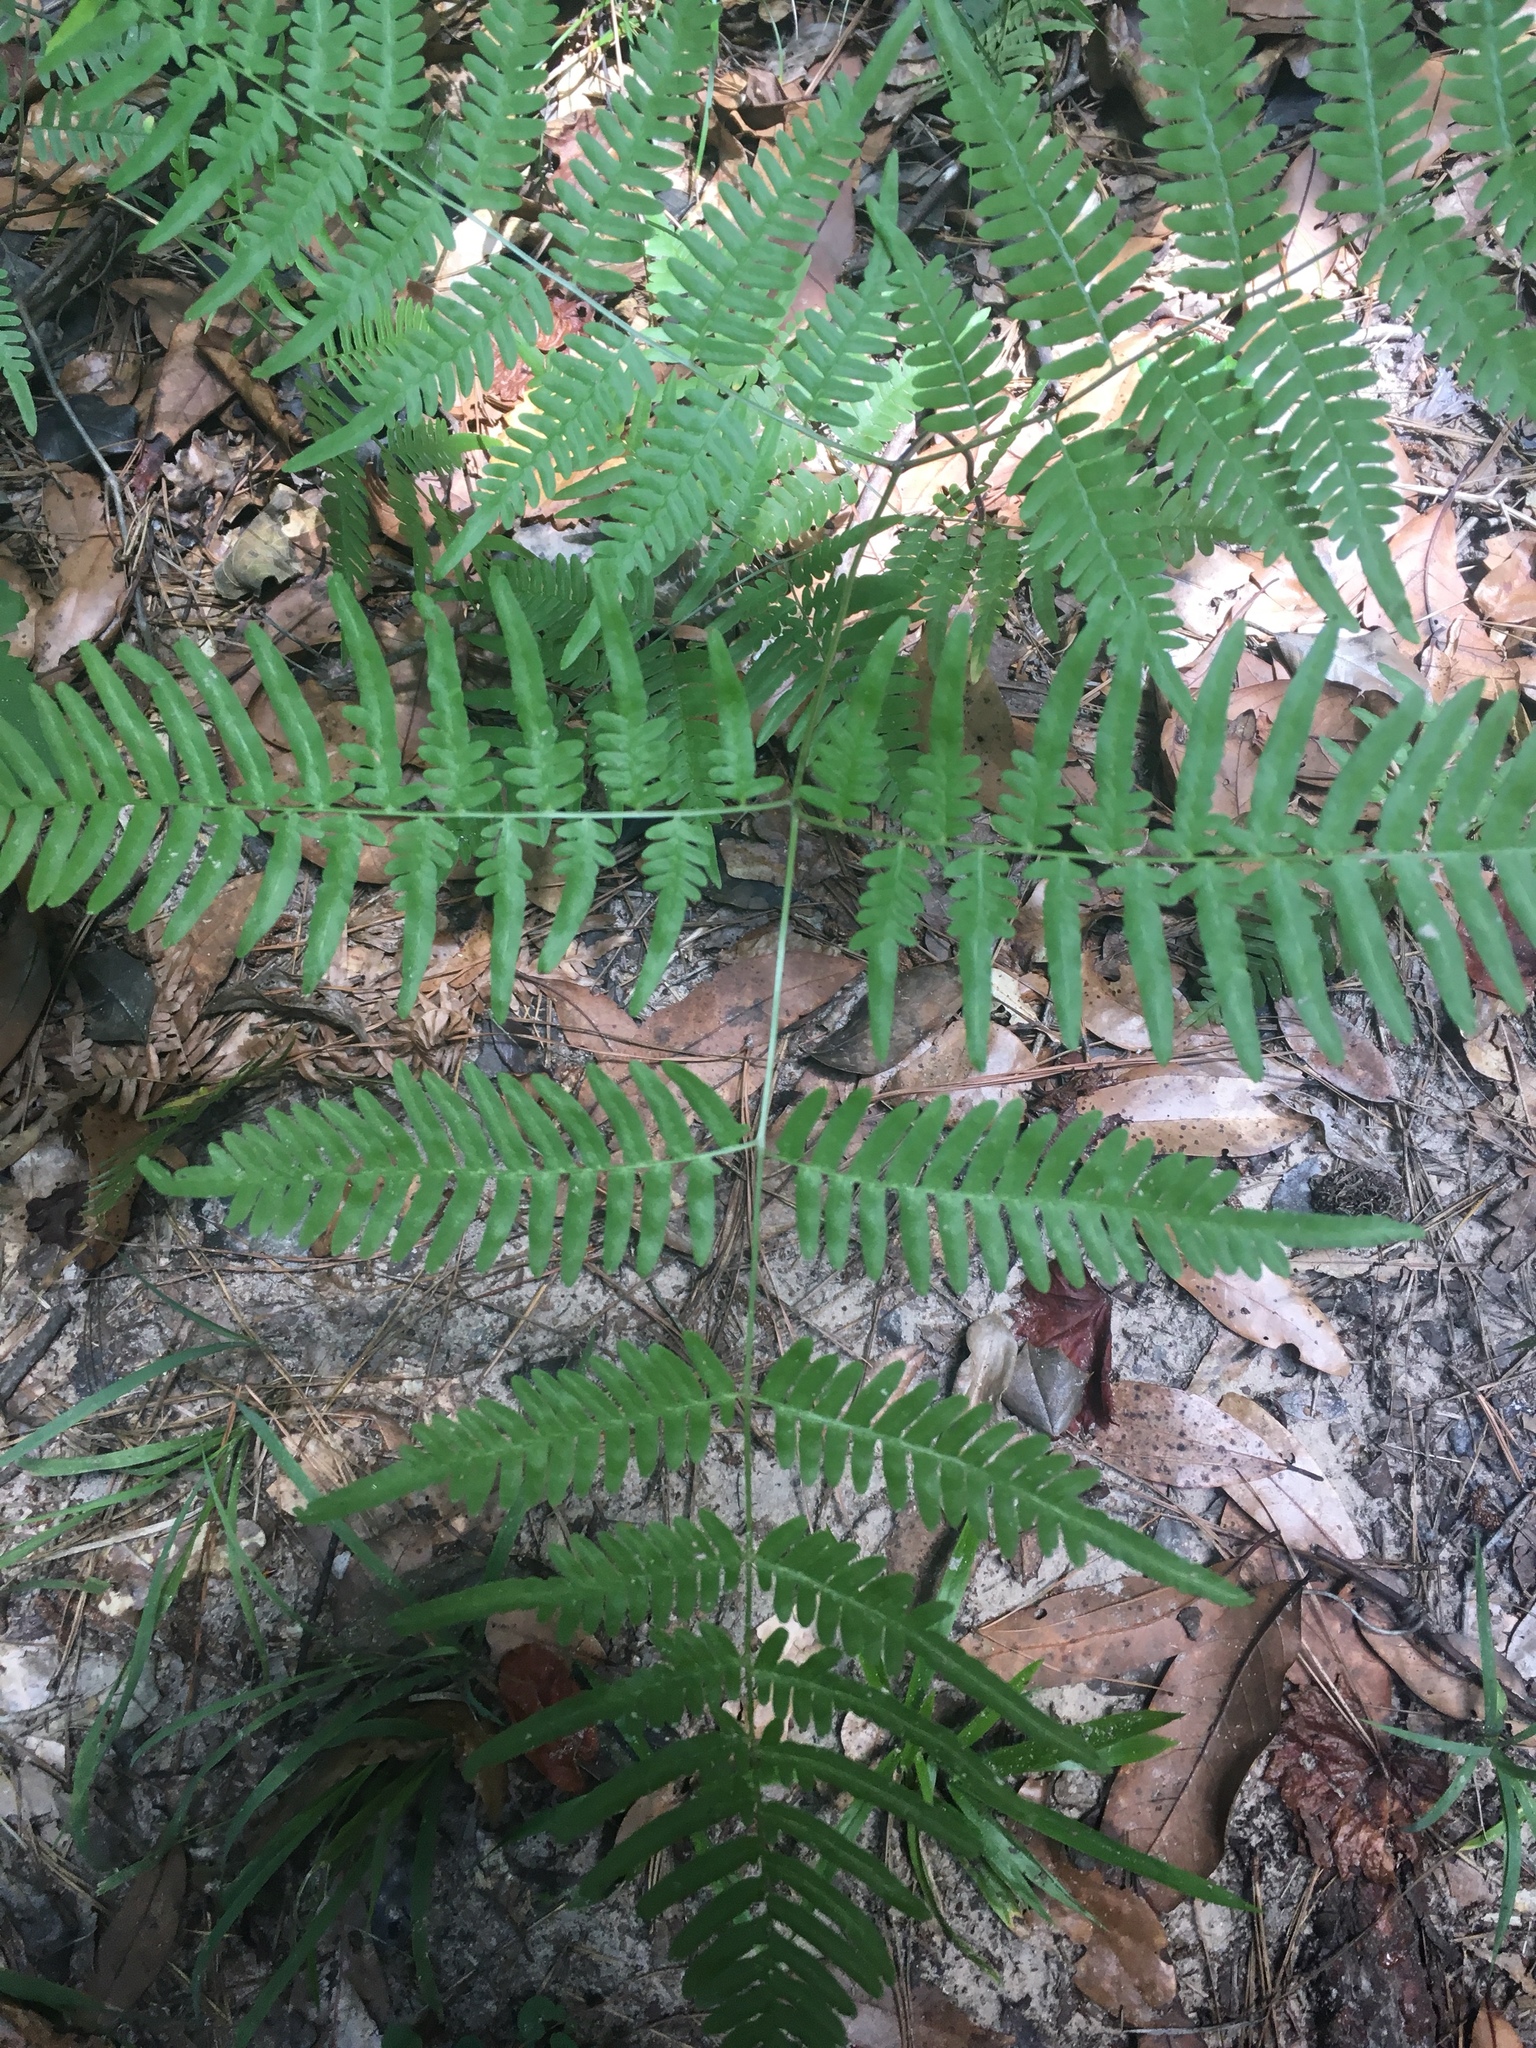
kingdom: Plantae
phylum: Tracheophyta
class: Polypodiopsida
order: Polypodiales
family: Dennstaedtiaceae
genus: Pteridium
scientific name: Pteridium aquilinum
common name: Bracken
